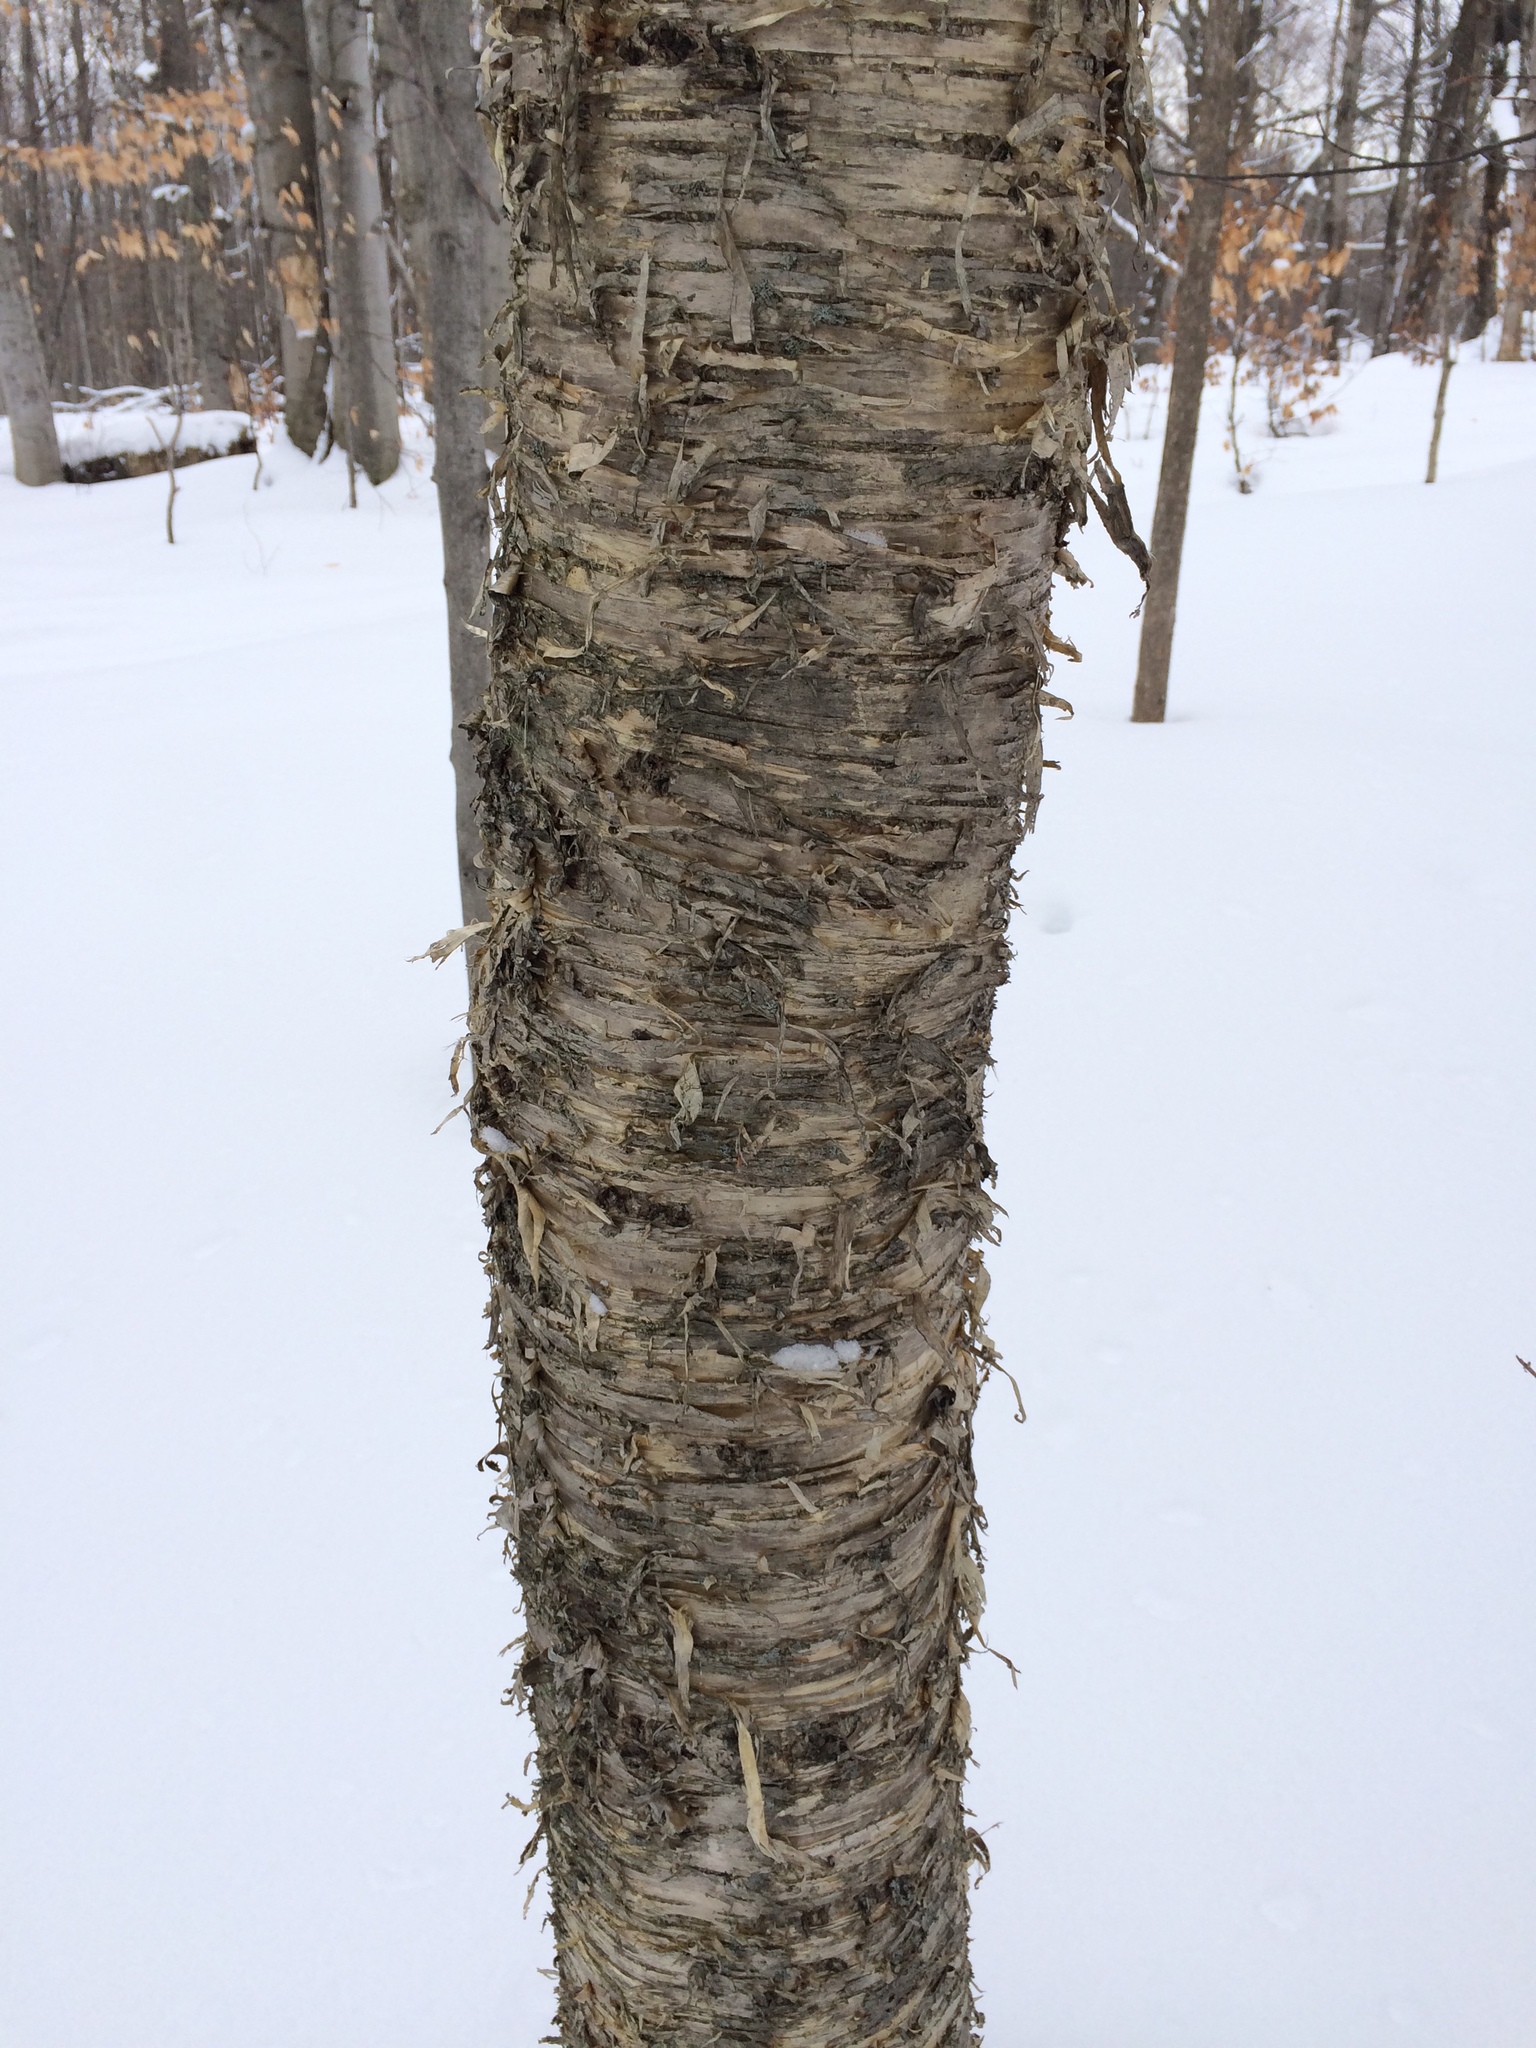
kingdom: Plantae
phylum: Tracheophyta
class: Magnoliopsida
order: Fagales
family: Betulaceae
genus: Betula
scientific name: Betula alleghaniensis
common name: Yellow birch
